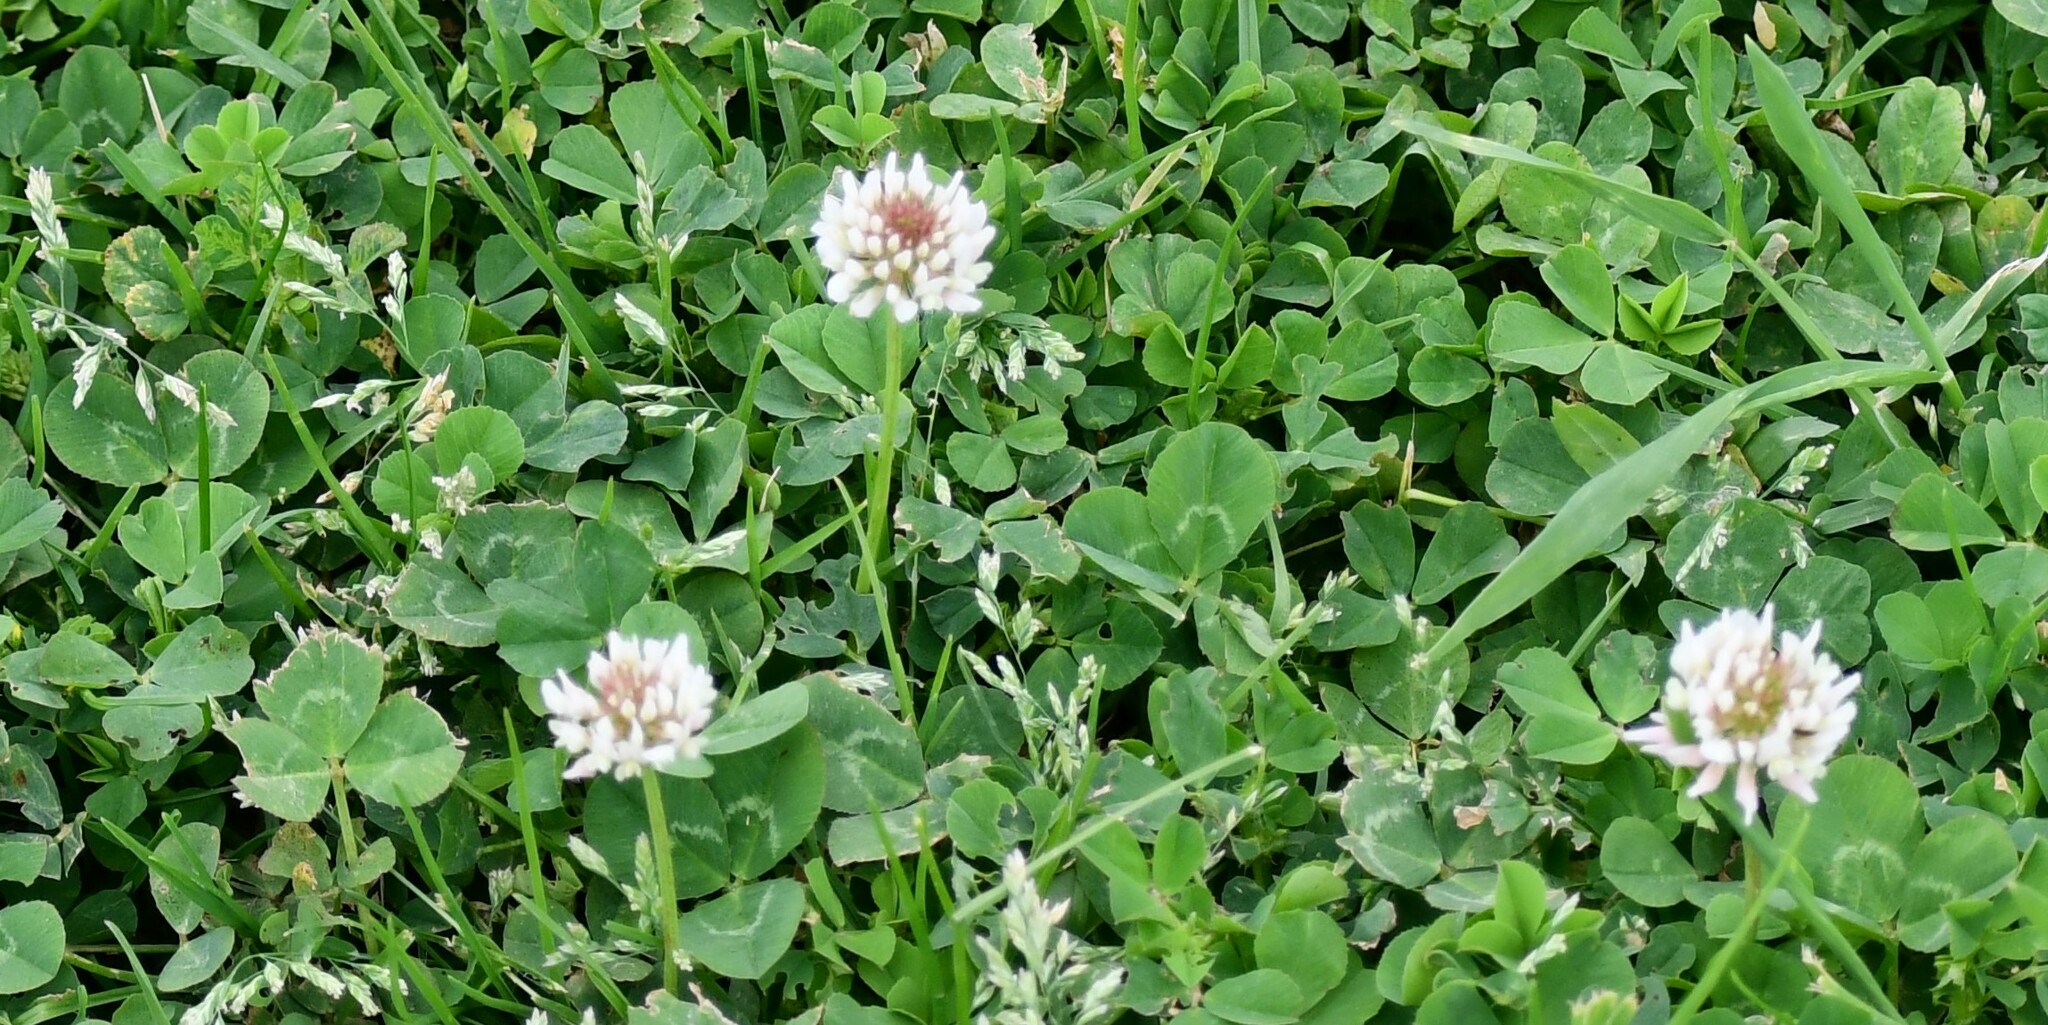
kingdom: Plantae
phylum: Tracheophyta
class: Magnoliopsida
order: Fabales
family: Fabaceae
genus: Trifolium
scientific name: Trifolium repens
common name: White clover
